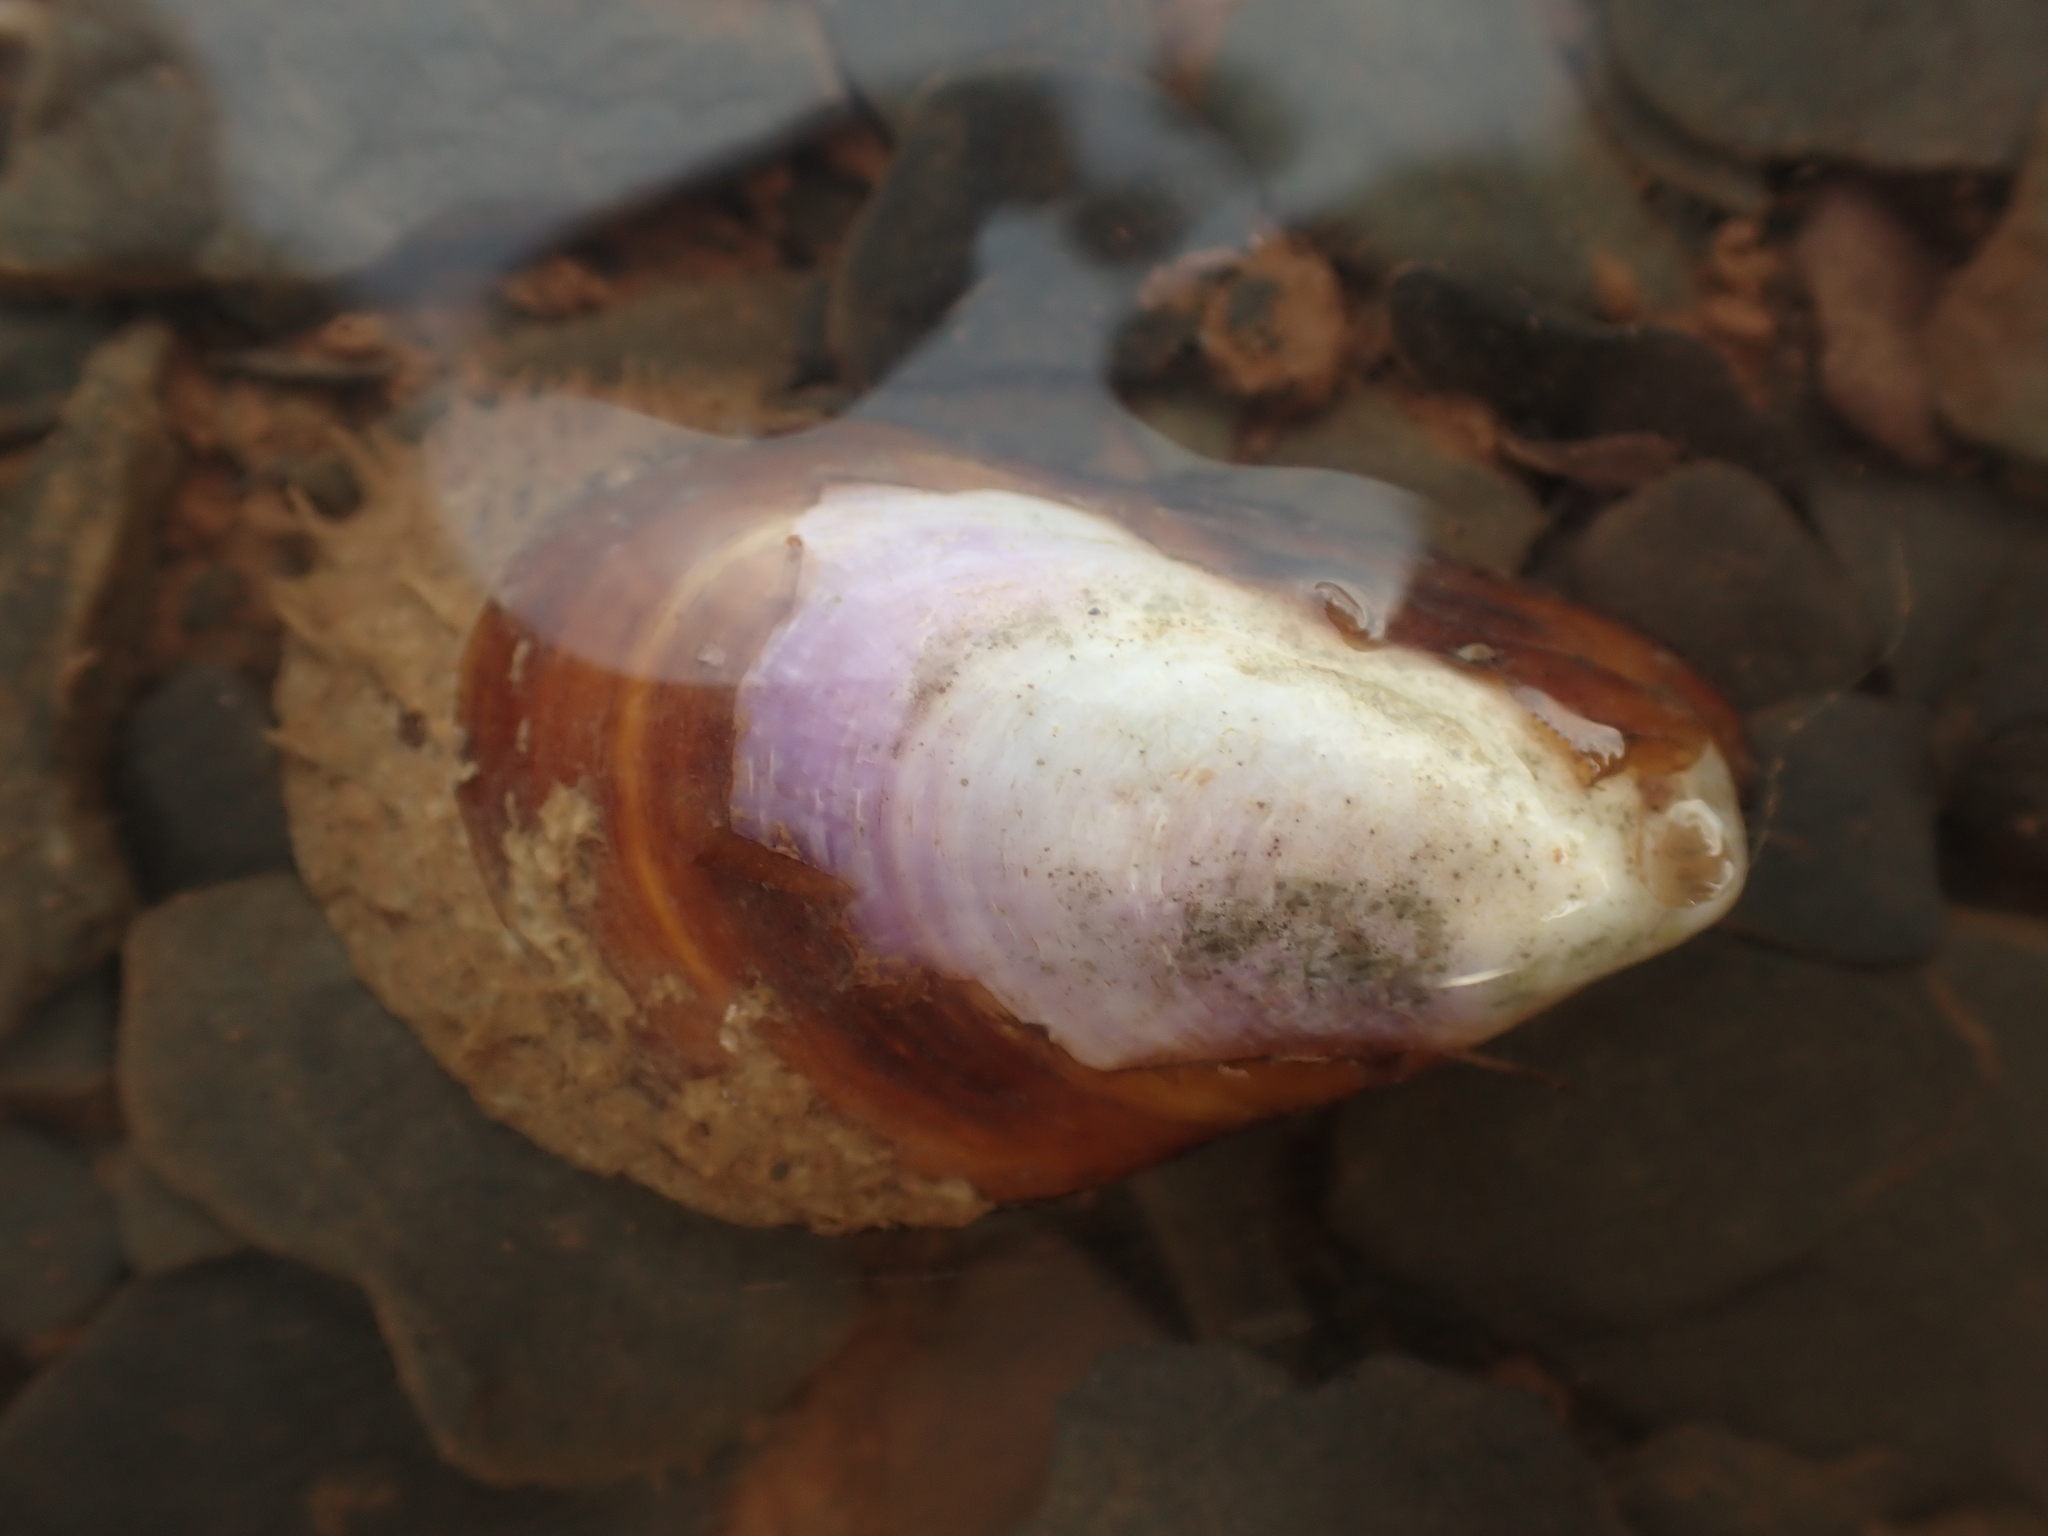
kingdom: Animalia
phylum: Mollusca
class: Bivalvia
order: Mytilida
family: Mytilidae
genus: Modiolus
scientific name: Modiolus modiolus
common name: Horse-mussel
